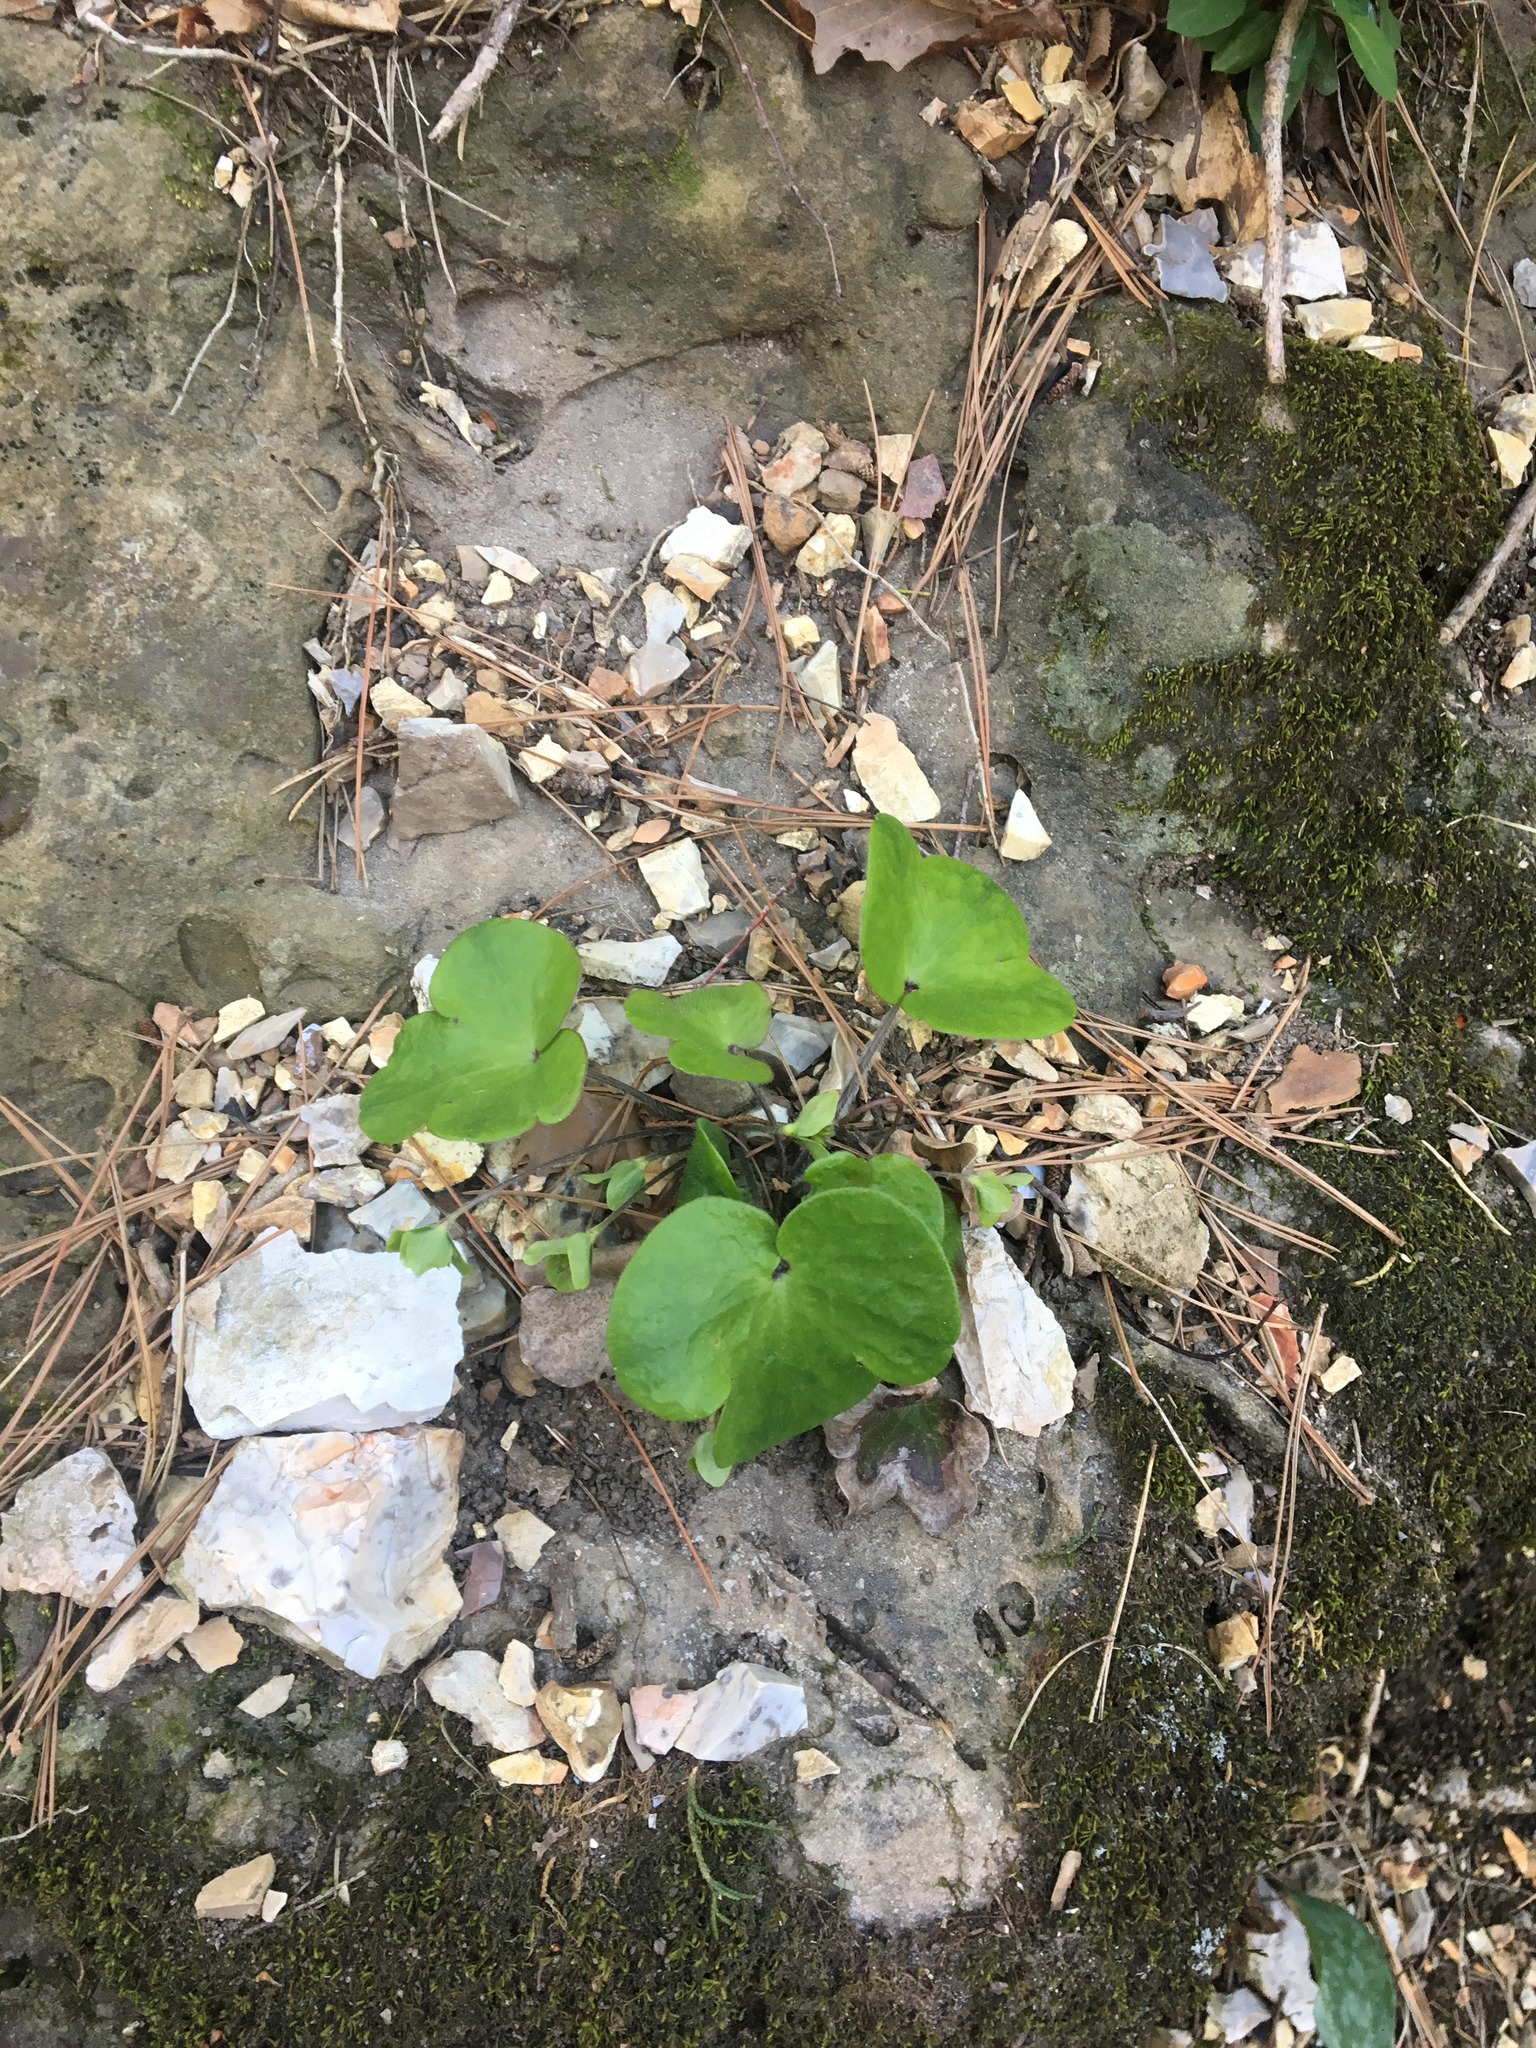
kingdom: Plantae
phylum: Tracheophyta
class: Magnoliopsida
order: Ranunculales
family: Ranunculaceae
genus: Hepatica
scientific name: Hepatica americana
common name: American hepatica
